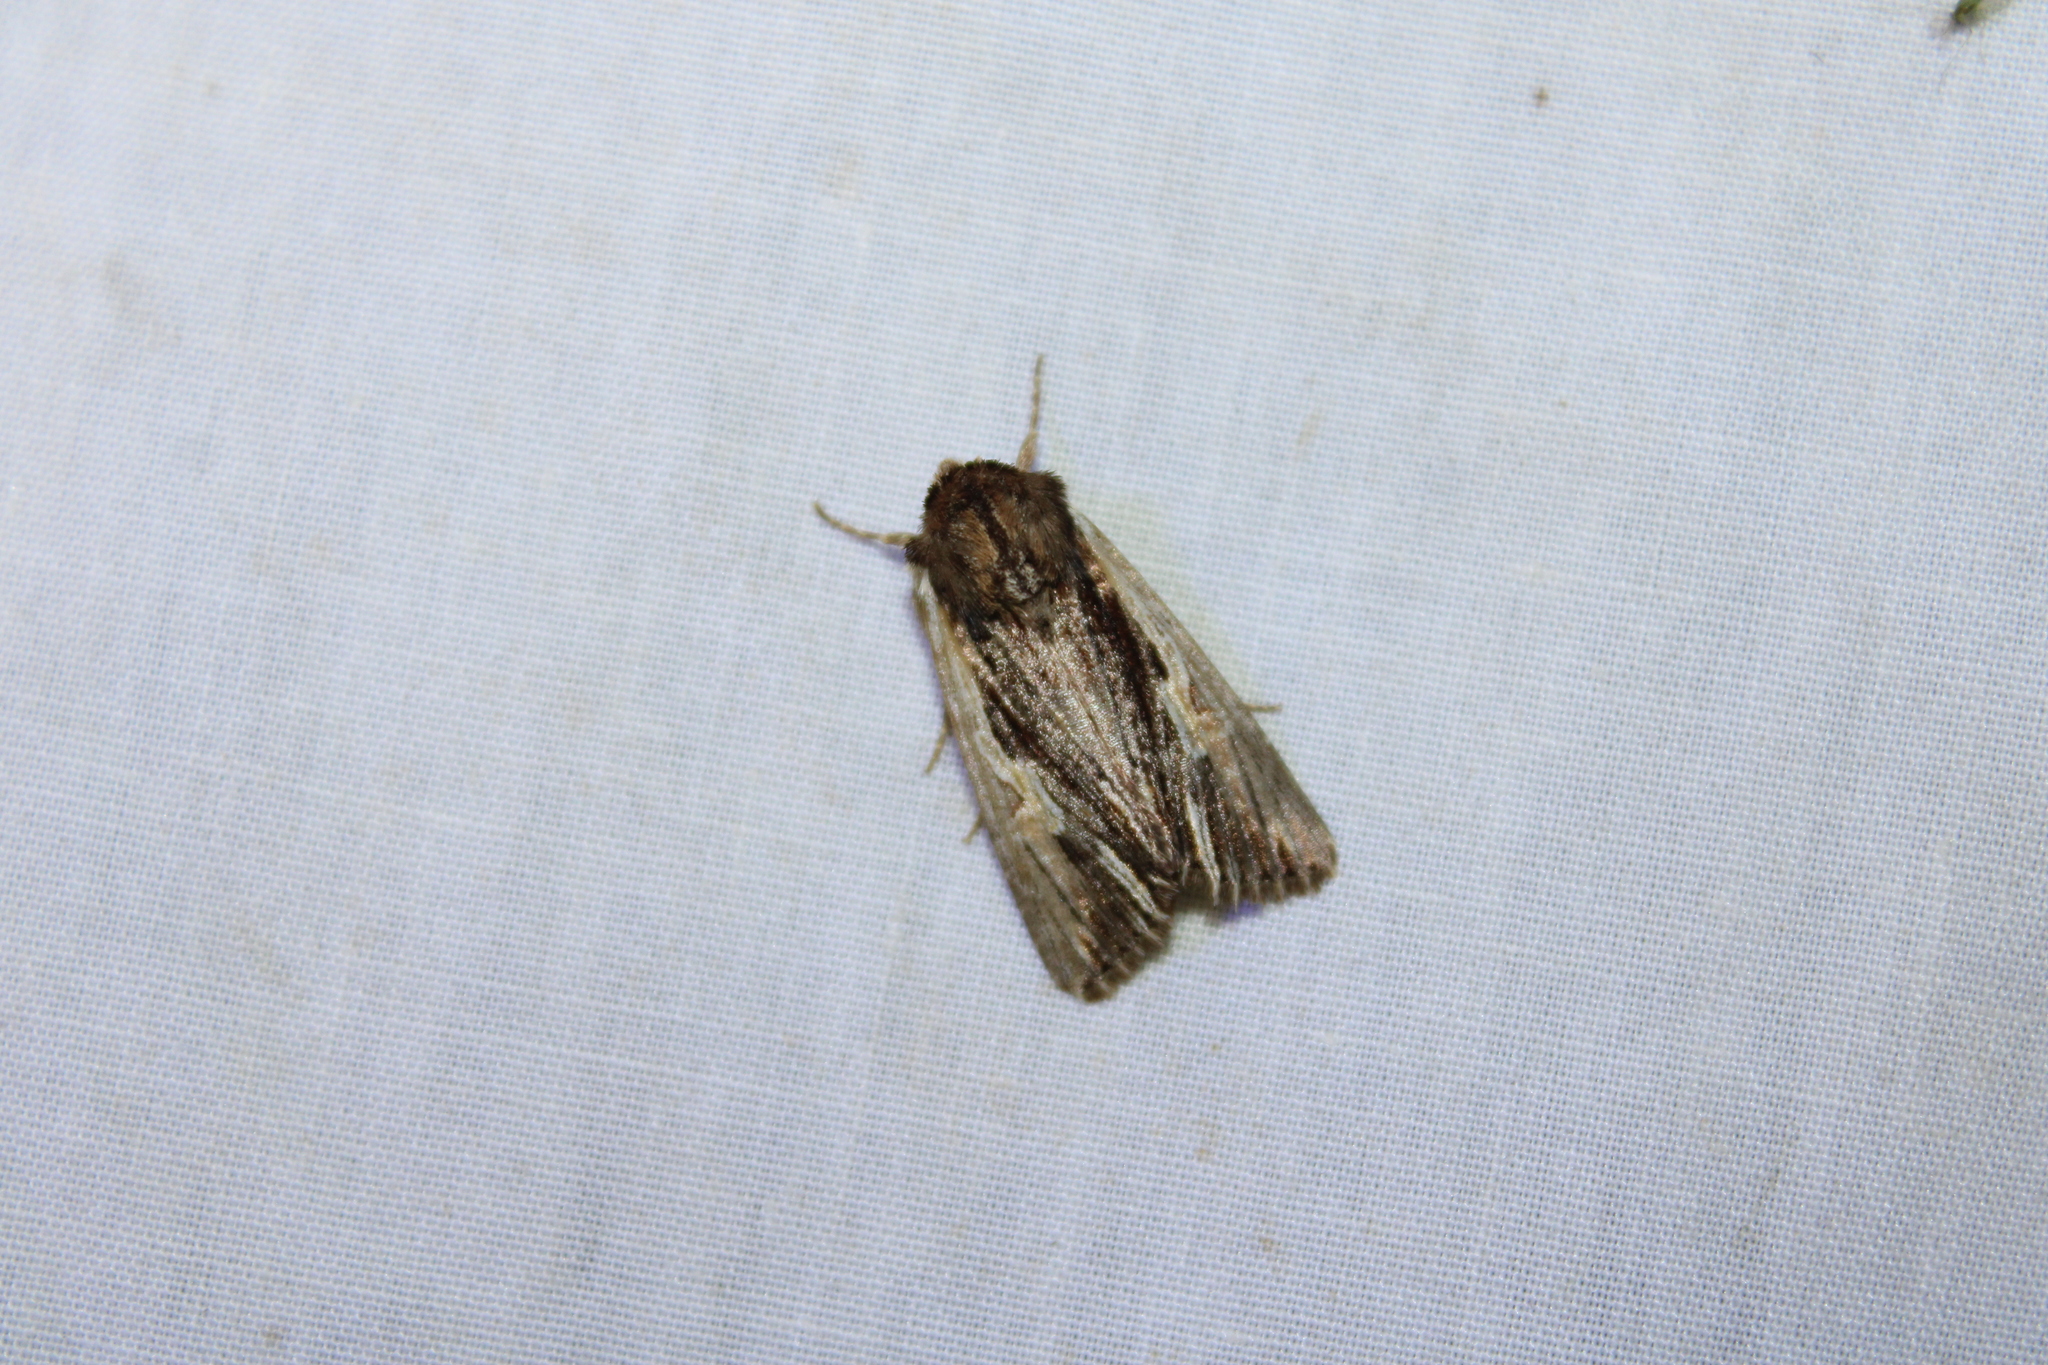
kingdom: Animalia
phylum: Arthropoda
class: Insecta
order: Lepidoptera
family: Noctuidae
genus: Achatia
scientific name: Achatia evicta
